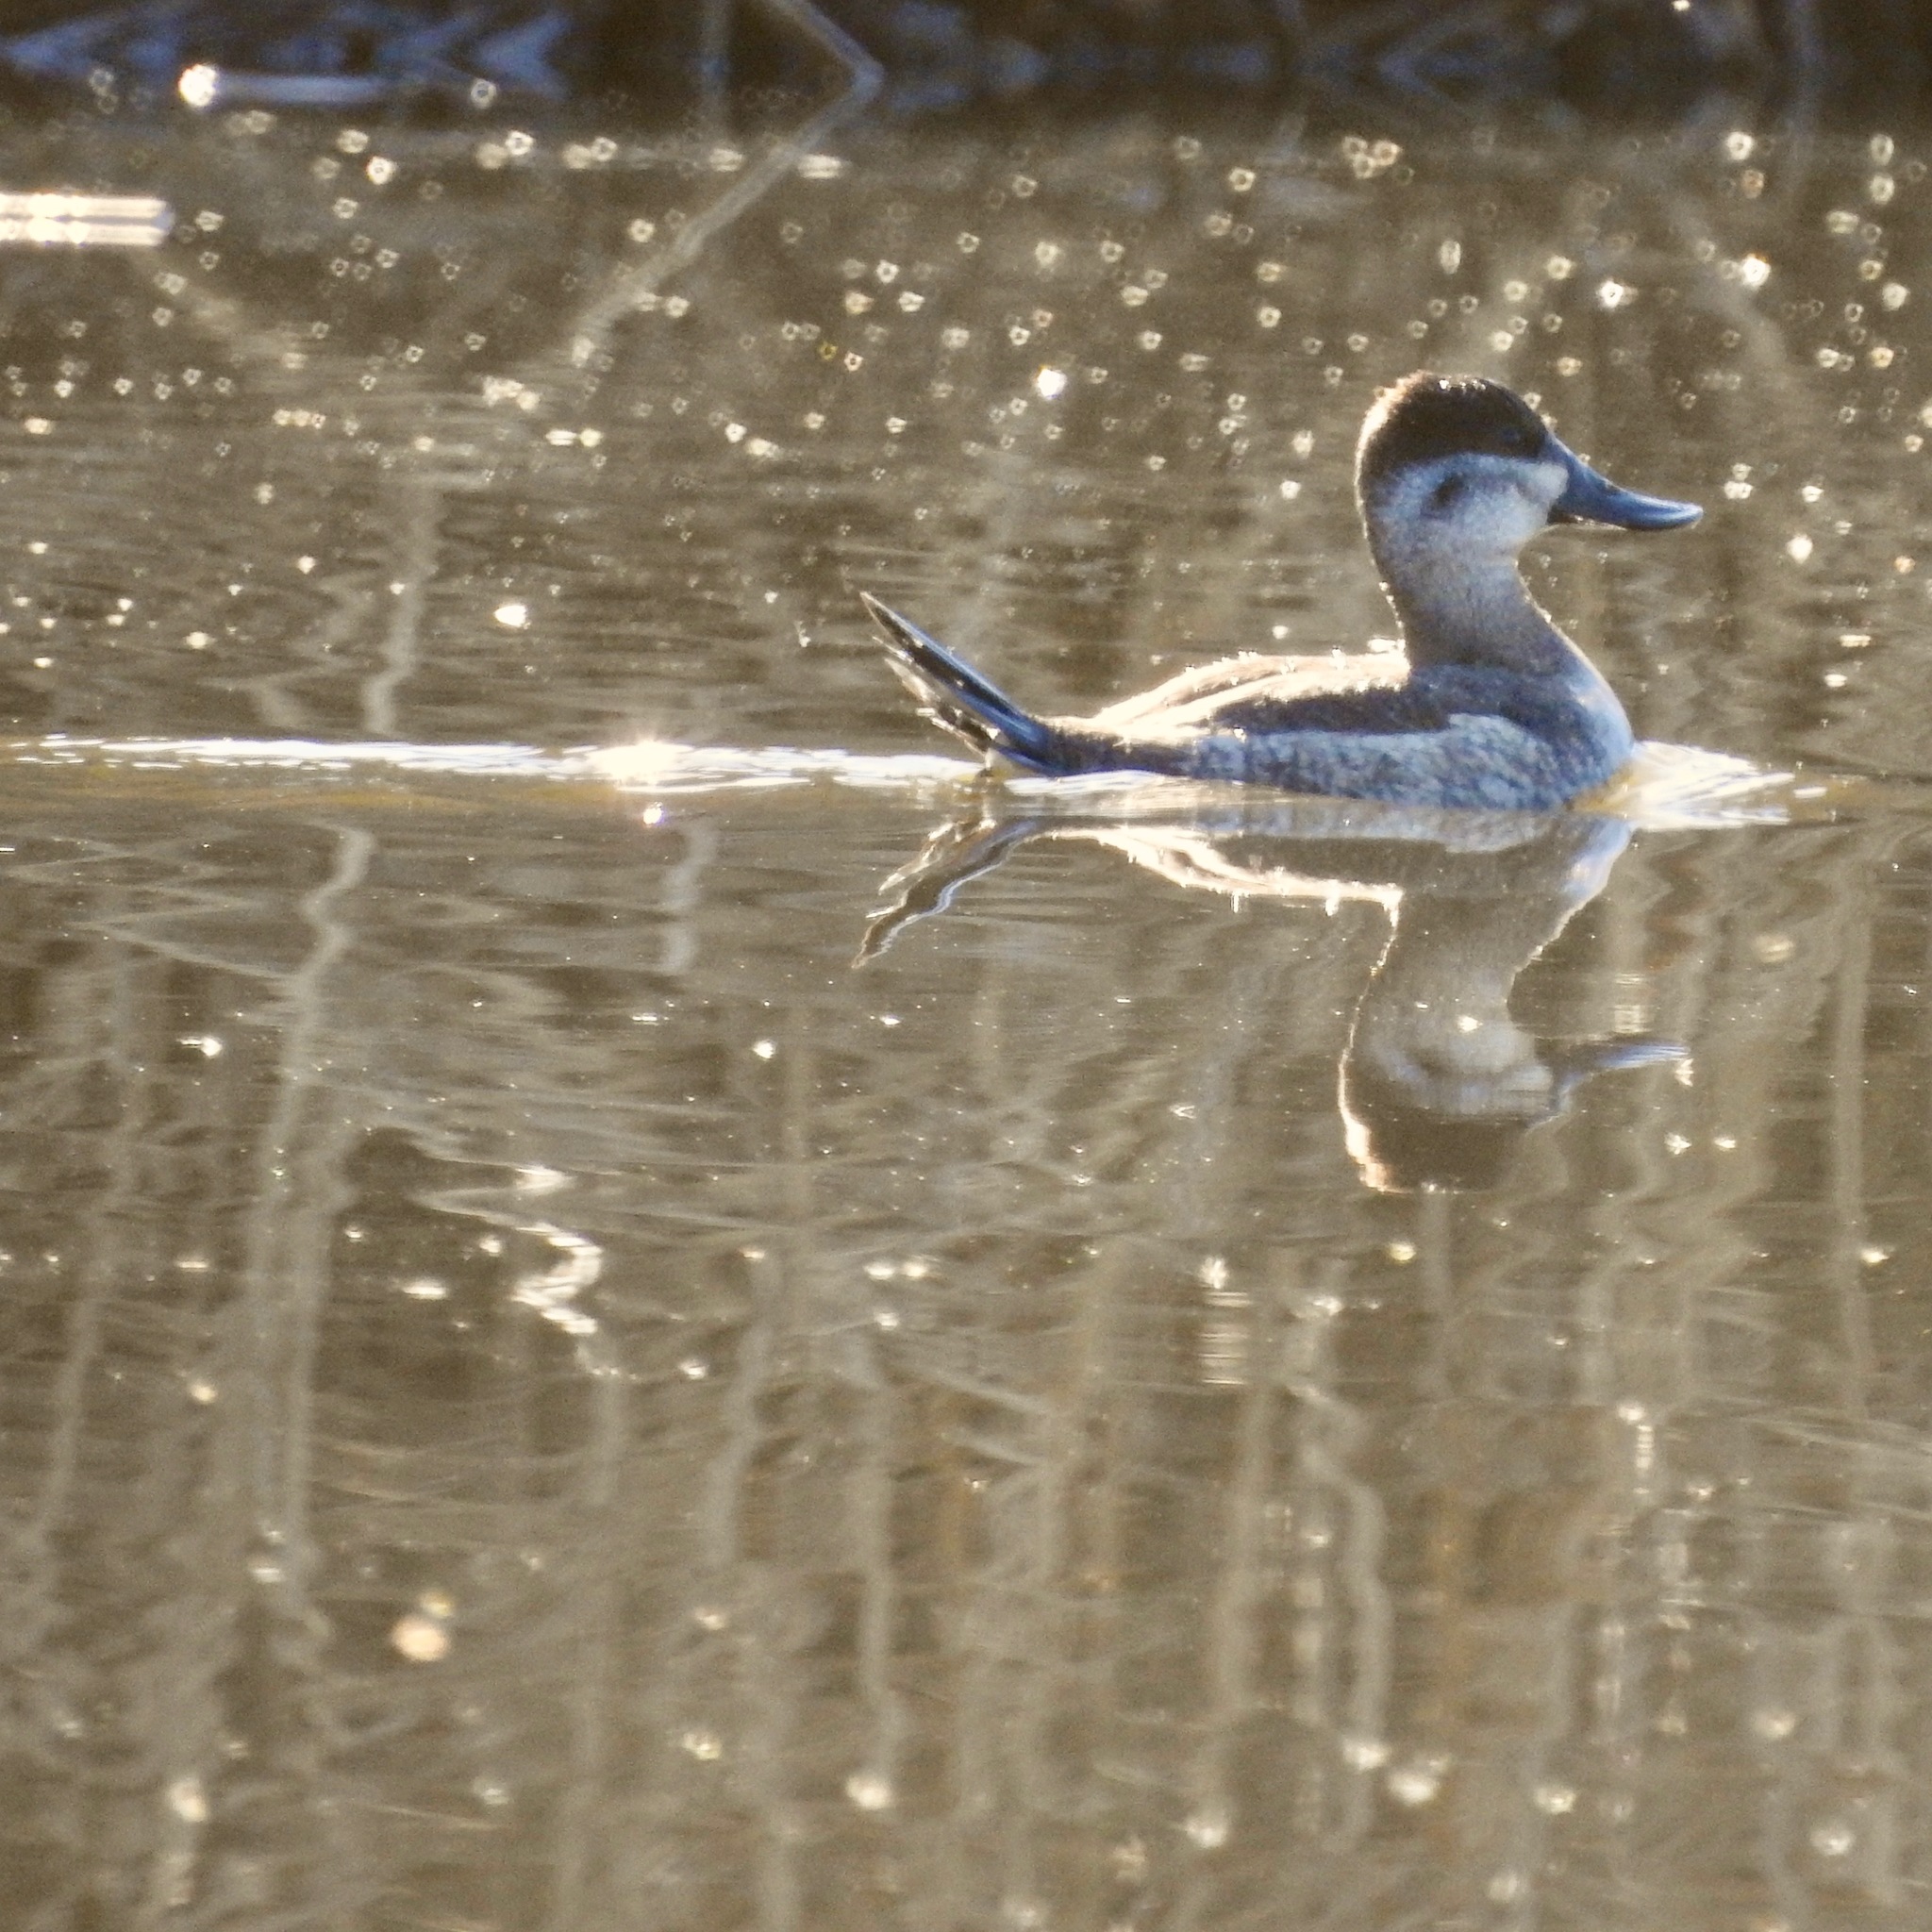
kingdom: Animalia
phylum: Chordata
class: Aves
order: Anseriformes
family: Anatidae
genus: Oxyura
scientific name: Oxyura jamaicensis
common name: Ruddy duck
